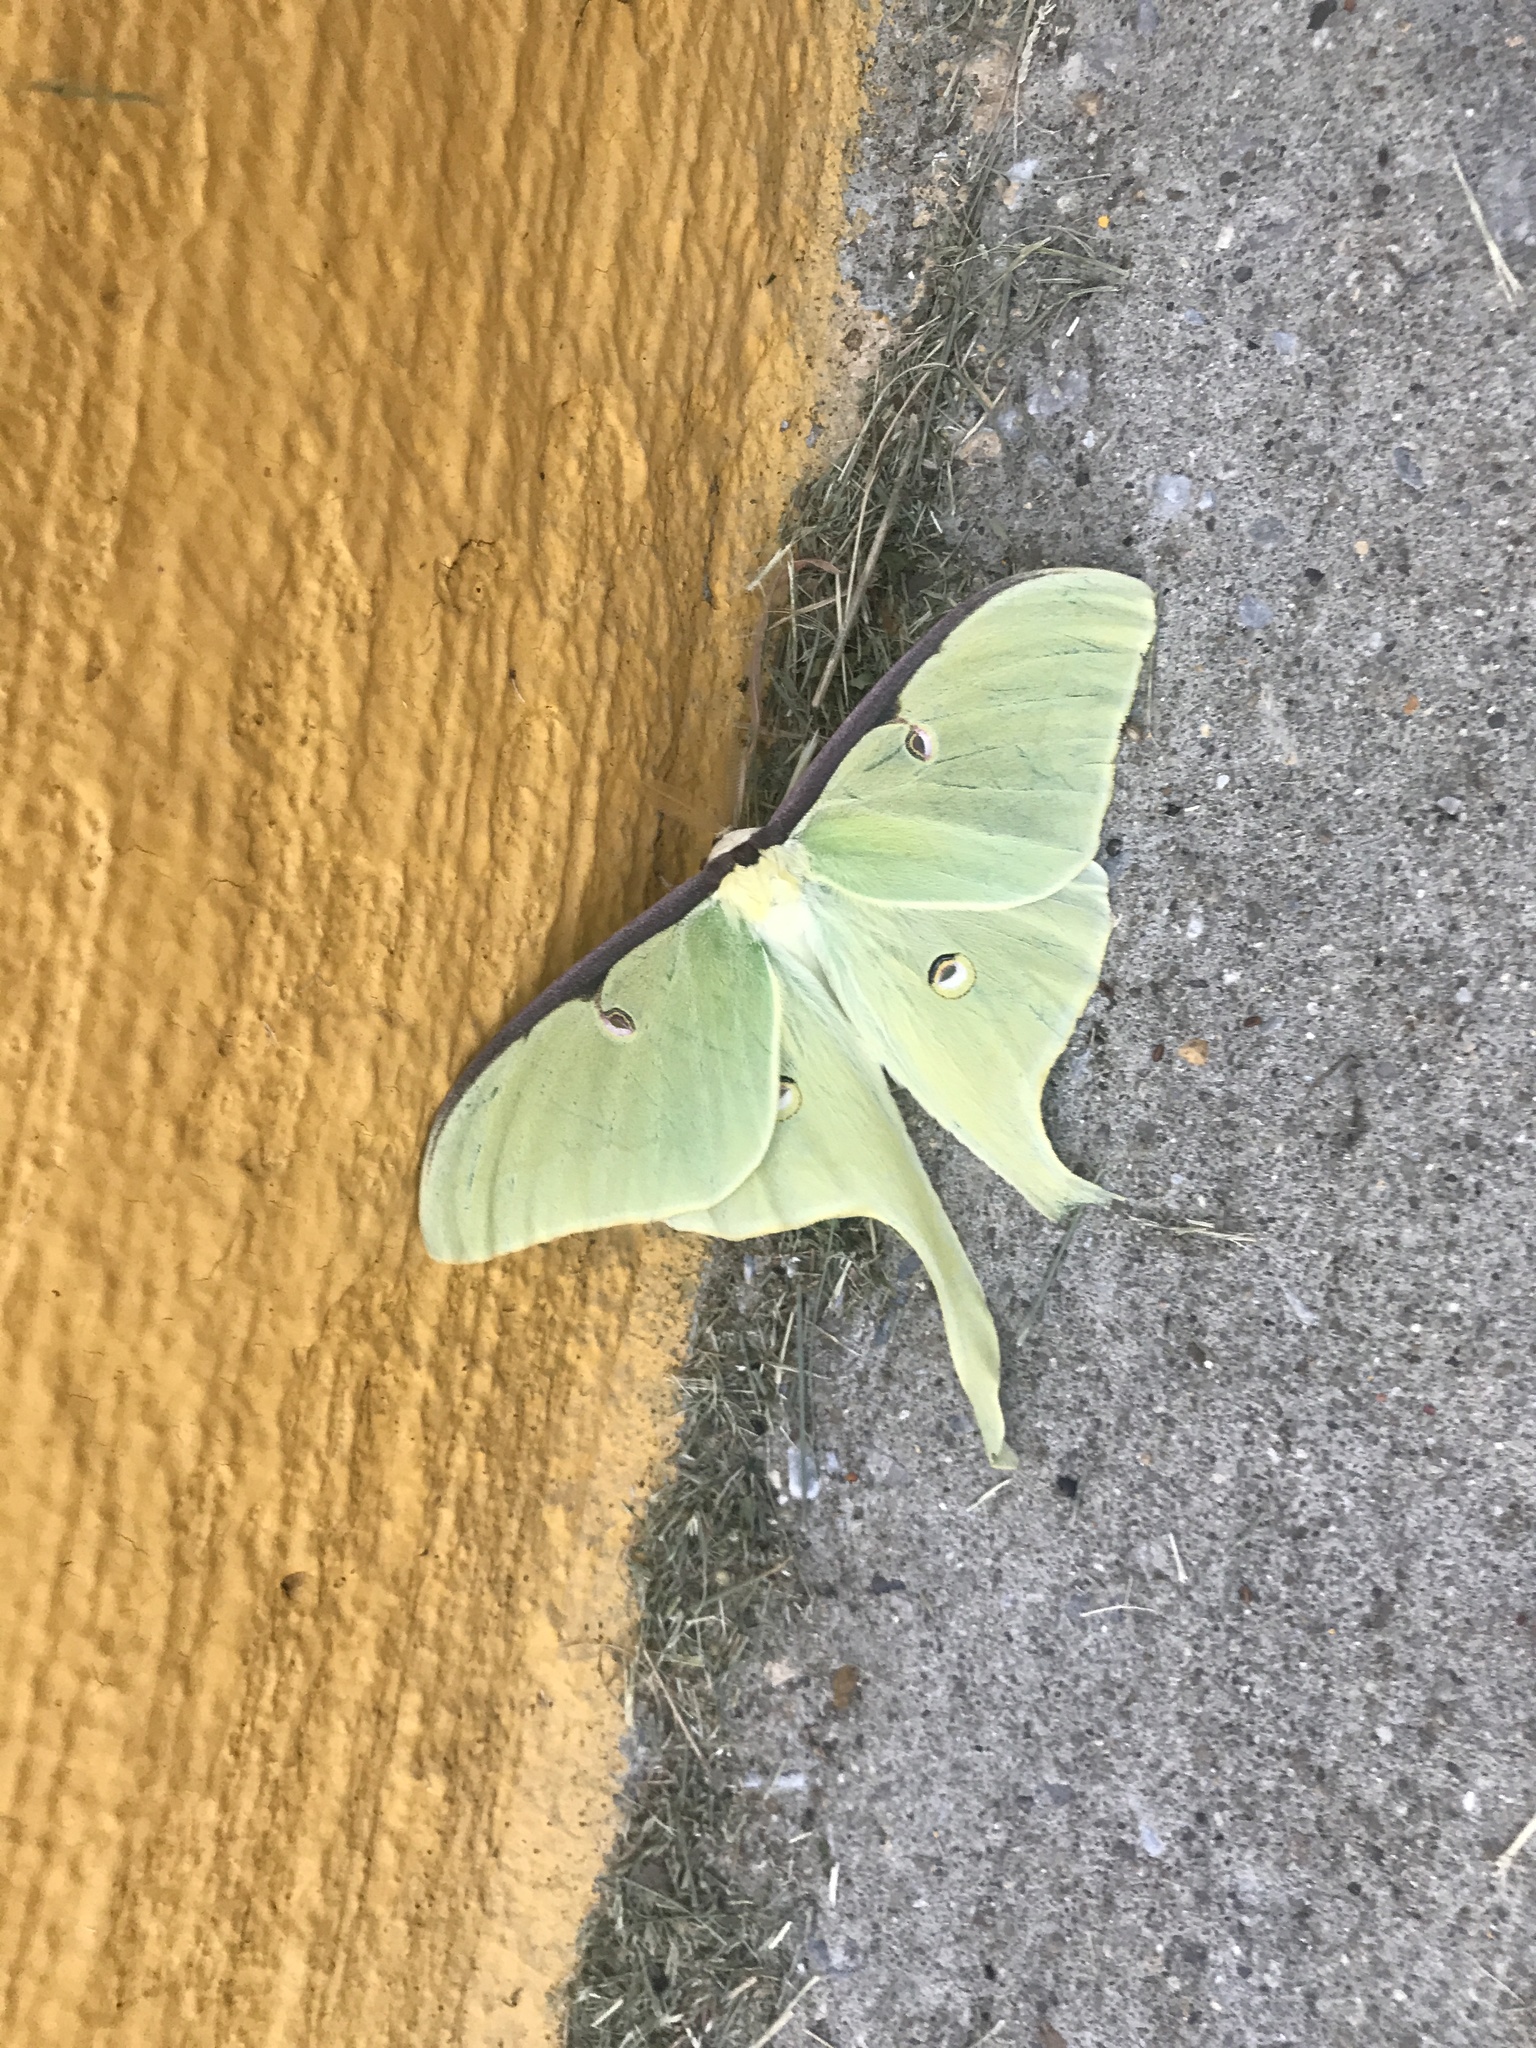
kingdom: Animalia
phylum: Arthropoda
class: Insecta
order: Lepidoptera
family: Saturniidae
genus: Actias
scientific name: Actias luna
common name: Luna moth
